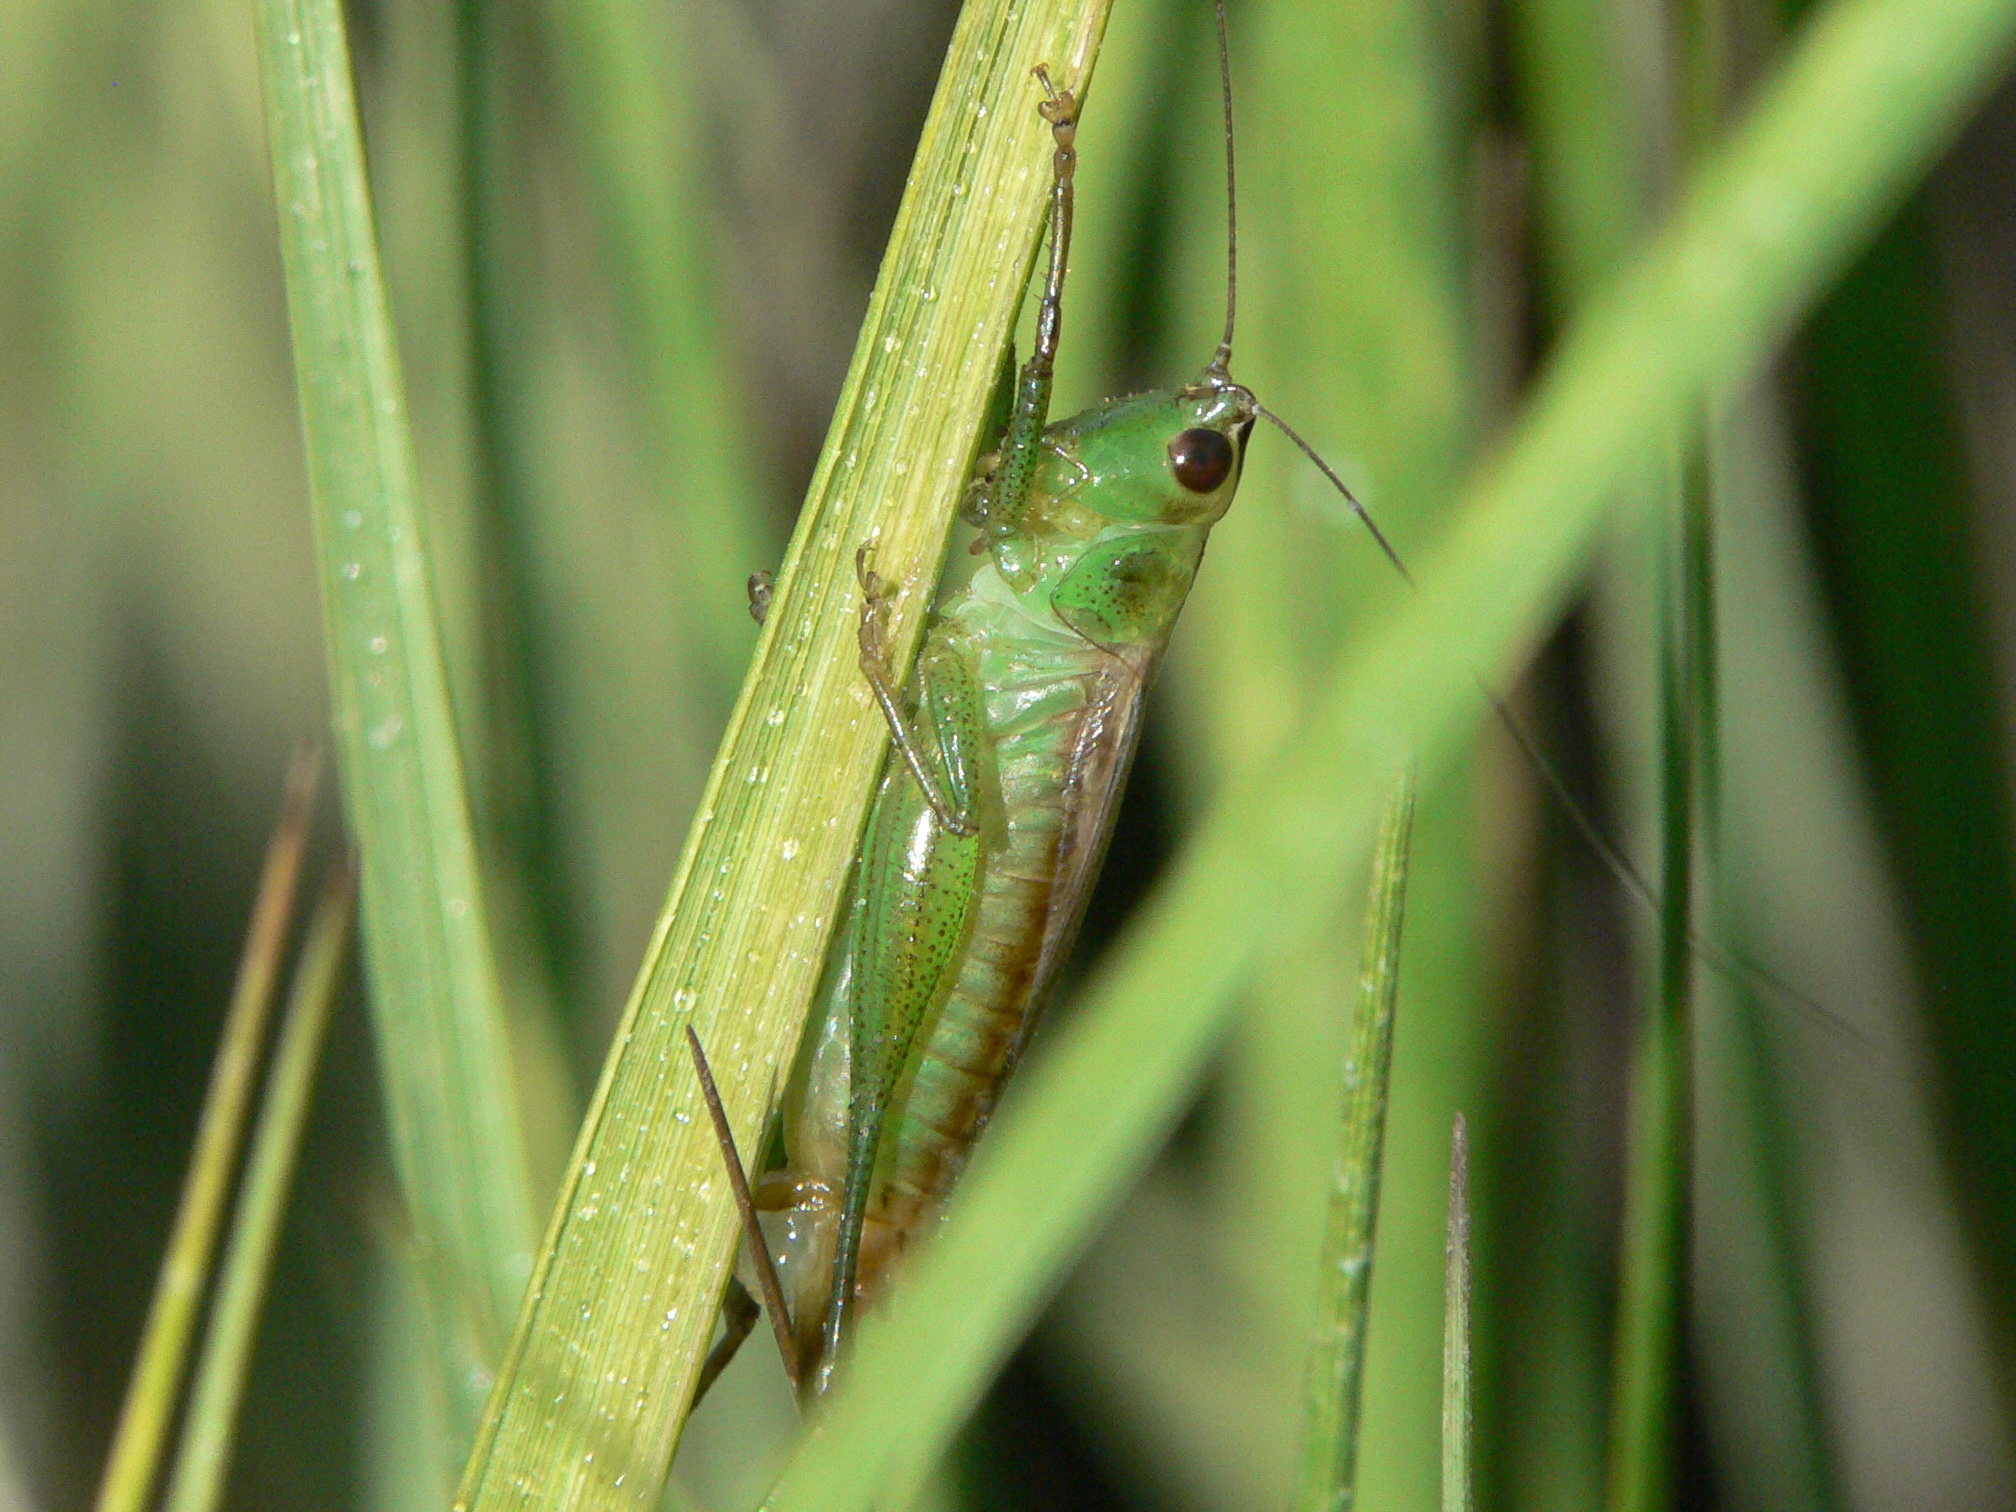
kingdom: Animalia
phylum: Arthropoda
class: Insecta
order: Orthoptera
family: Tettigoniidae
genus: Conocephalus
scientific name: Conocephalus spartinae
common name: Salt marsh meadow katydid
